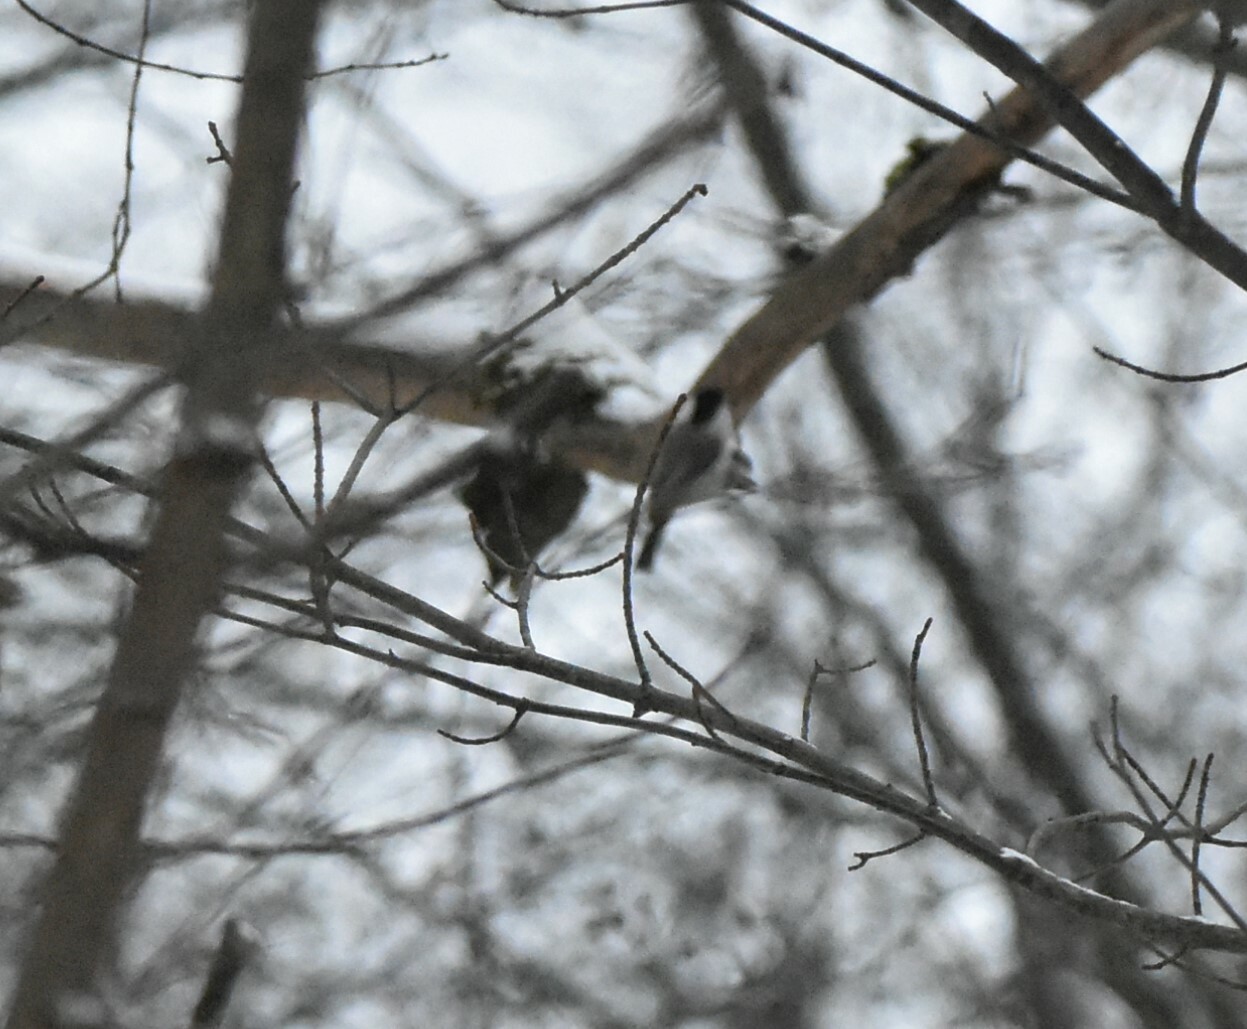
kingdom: Animalia
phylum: Chordata
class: Aves
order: Passeriformes
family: Paridae
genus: Poecile
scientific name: Poecile montanus
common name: Willow tit
